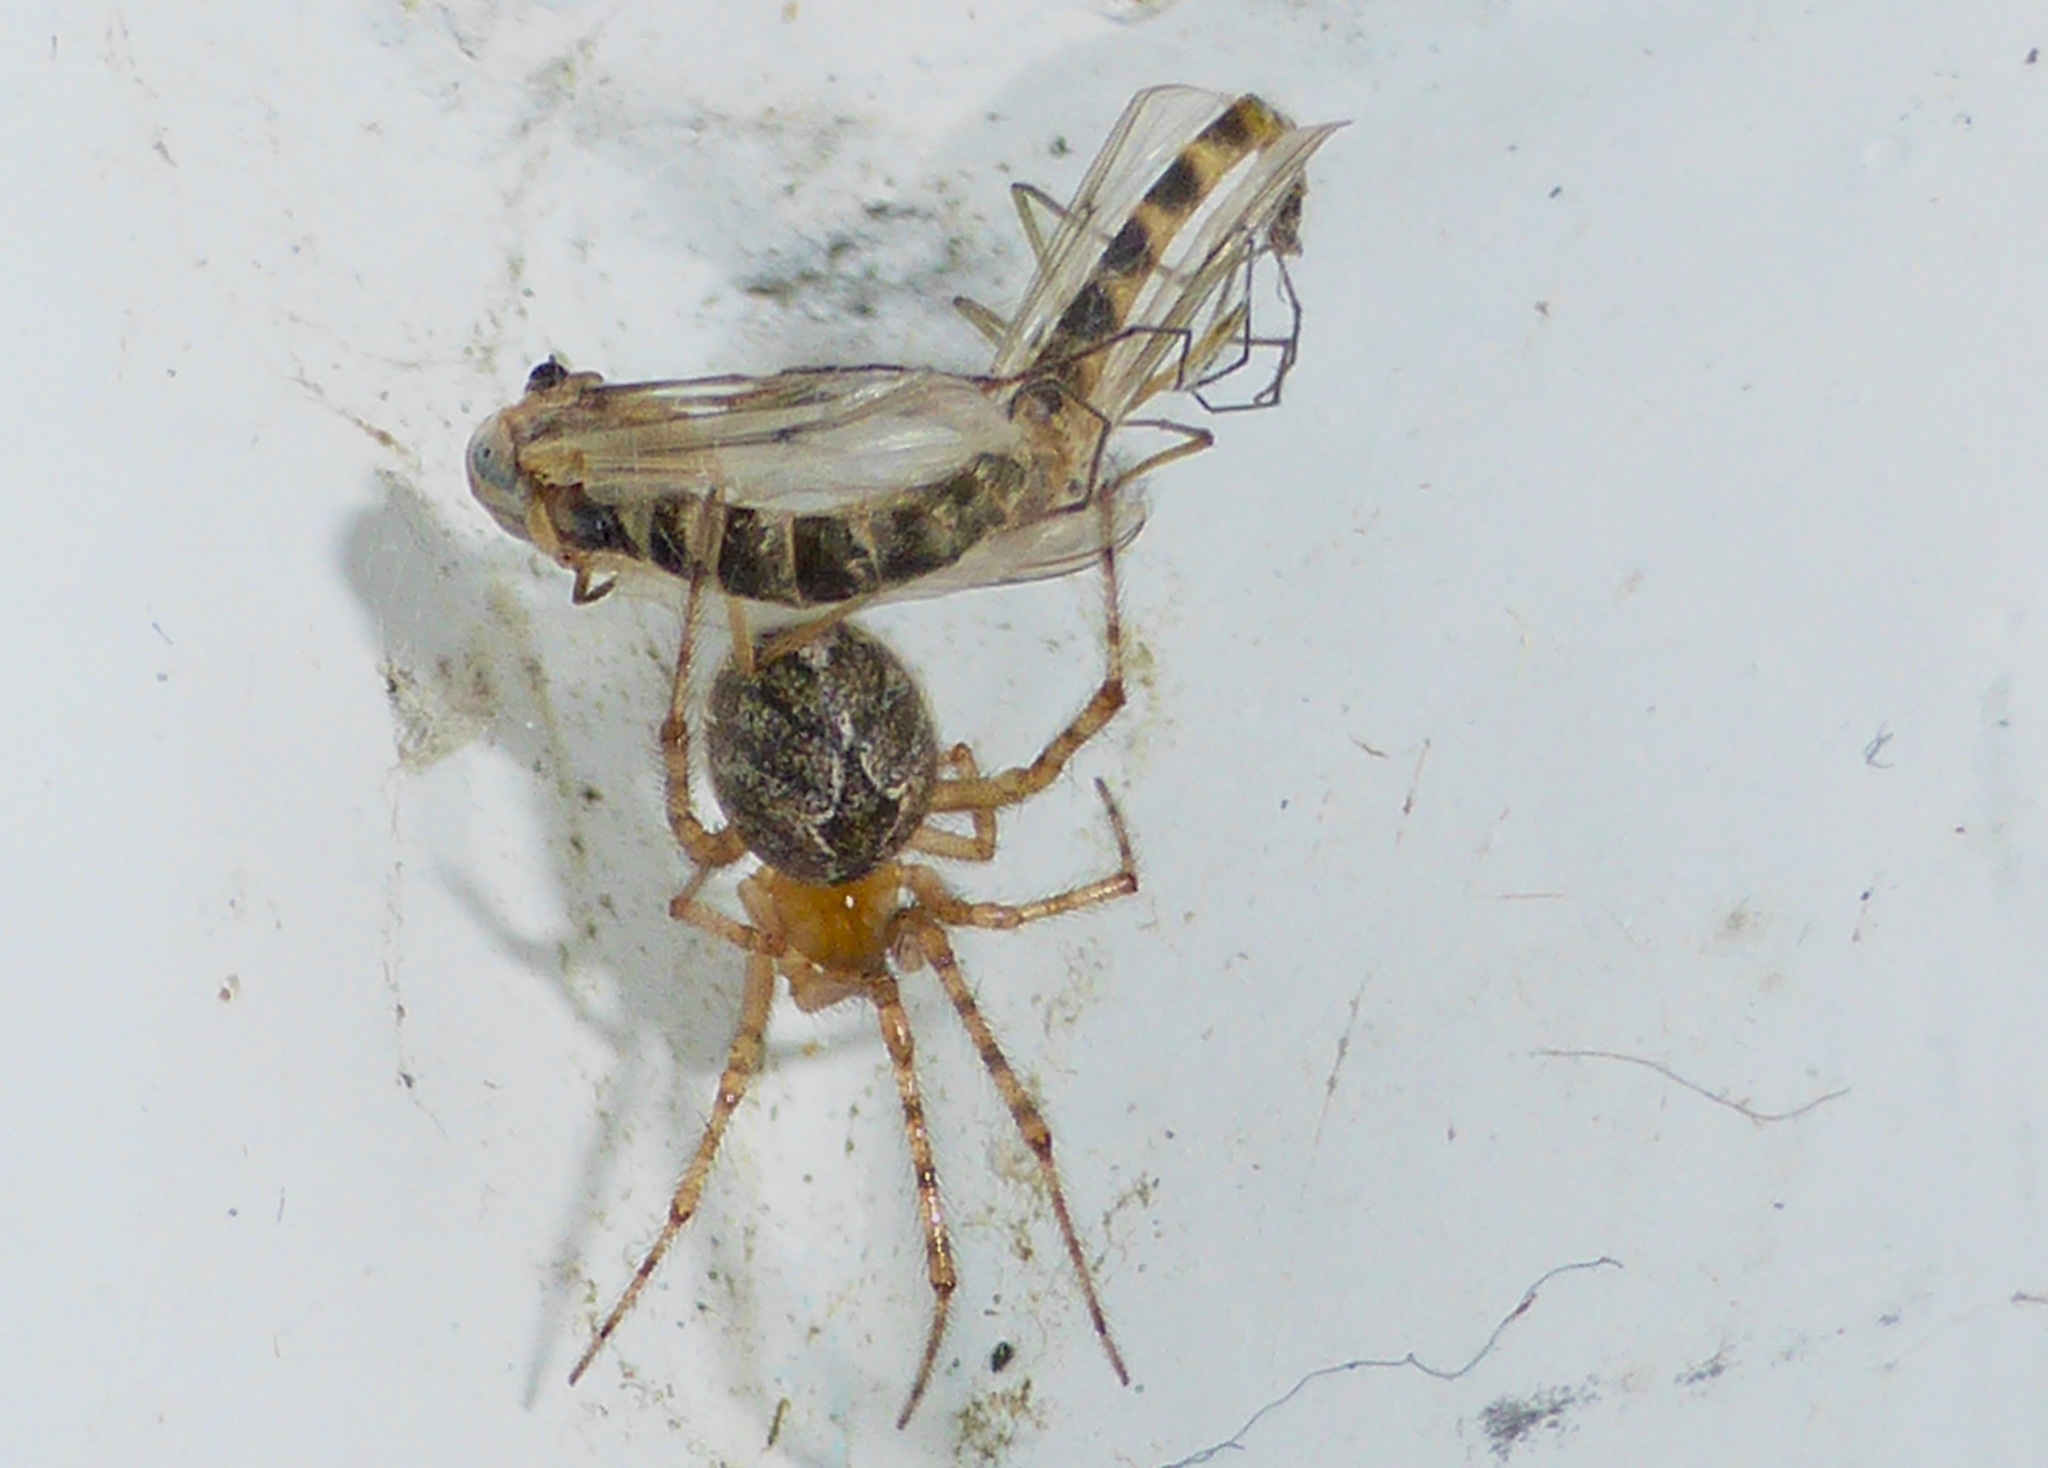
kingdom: Animalia
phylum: Arthropoda
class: Arachnida
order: Araneae
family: Theridiidae
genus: Cryptachaea
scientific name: Cryptachaea veruculata
